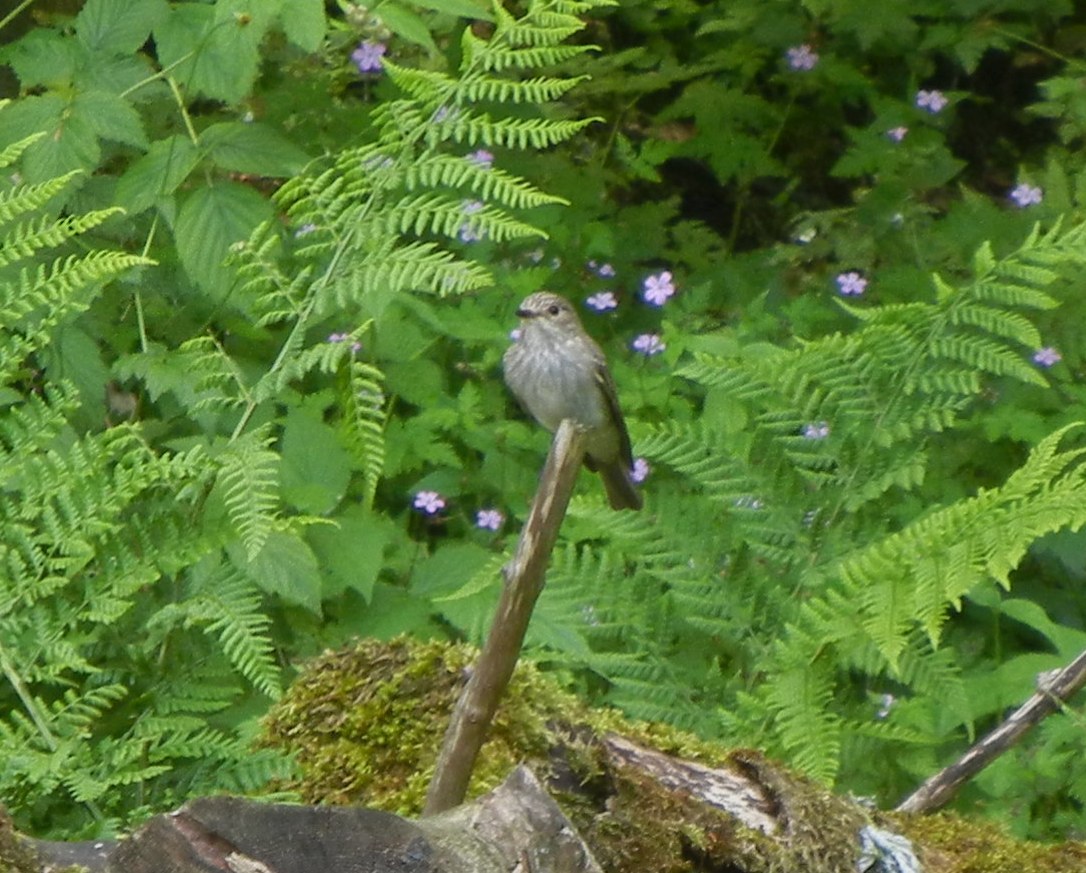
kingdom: Animalia
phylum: Chordata
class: Aves
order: Passeriformes
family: Muscicapidae
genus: Muscicapa
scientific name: Muscicapa striata
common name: Spotted flycatcher
